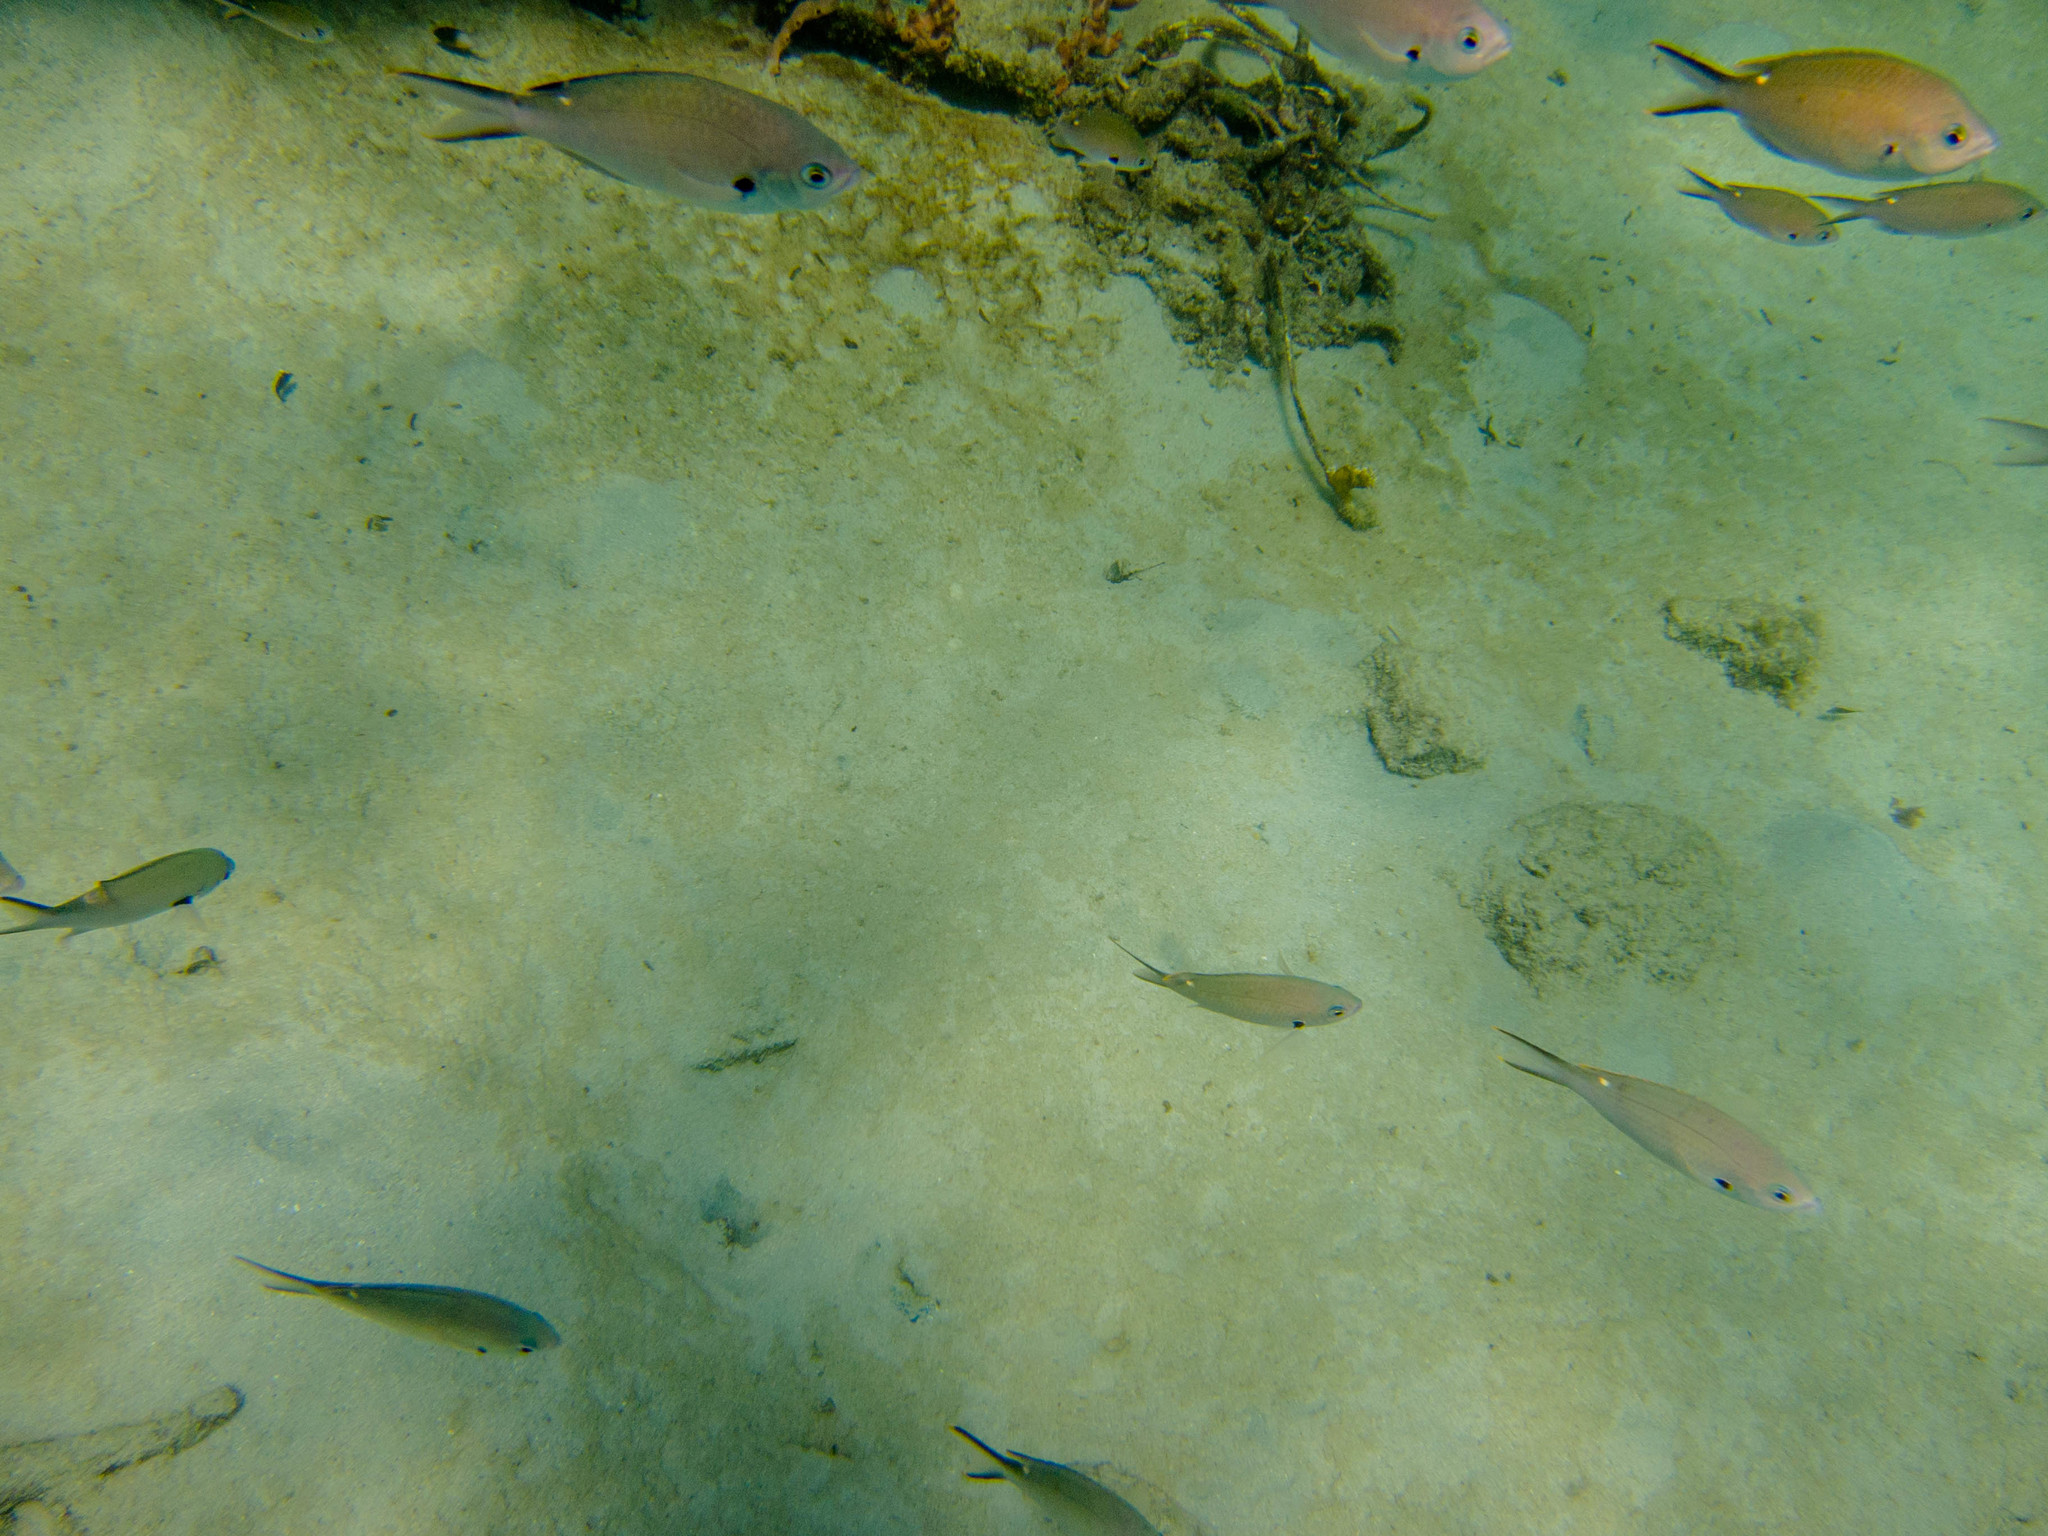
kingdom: Animalia
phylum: Chordata
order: Perciformes
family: Pomacentridae
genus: Chromis
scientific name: Chromis multilineata
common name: Brown chromis
